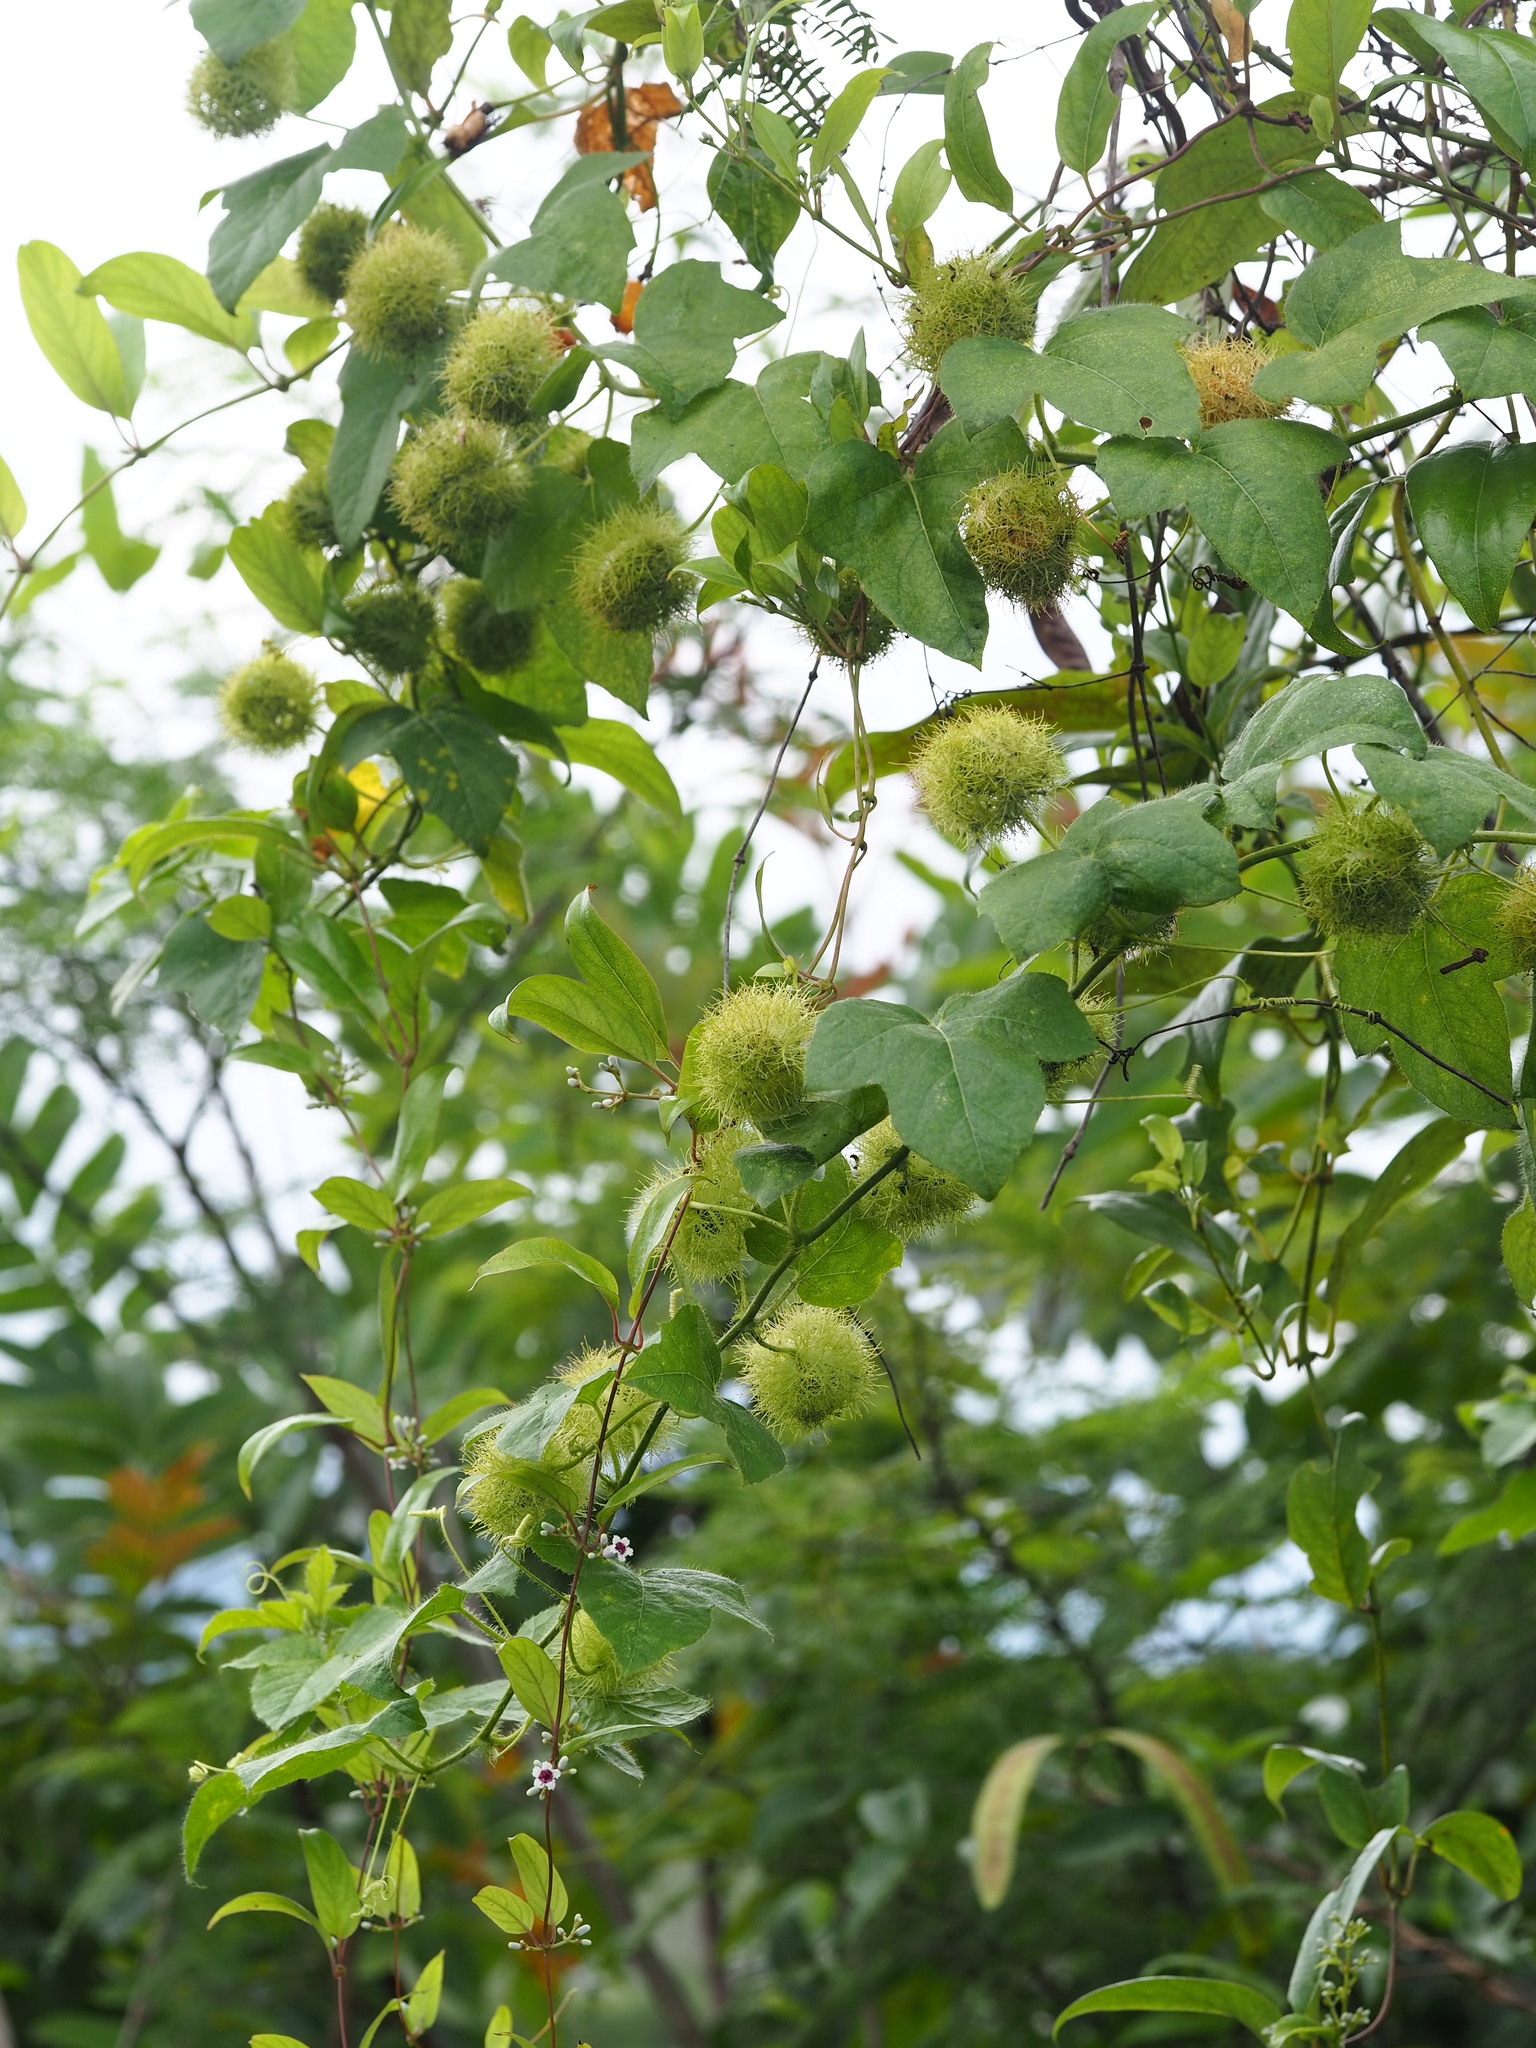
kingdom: Plantae
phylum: Tracheophyta
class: Magnoliopsida
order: Malpighiales
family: Passifloraceae
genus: Passiflora
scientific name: Passiflora vesicaria
